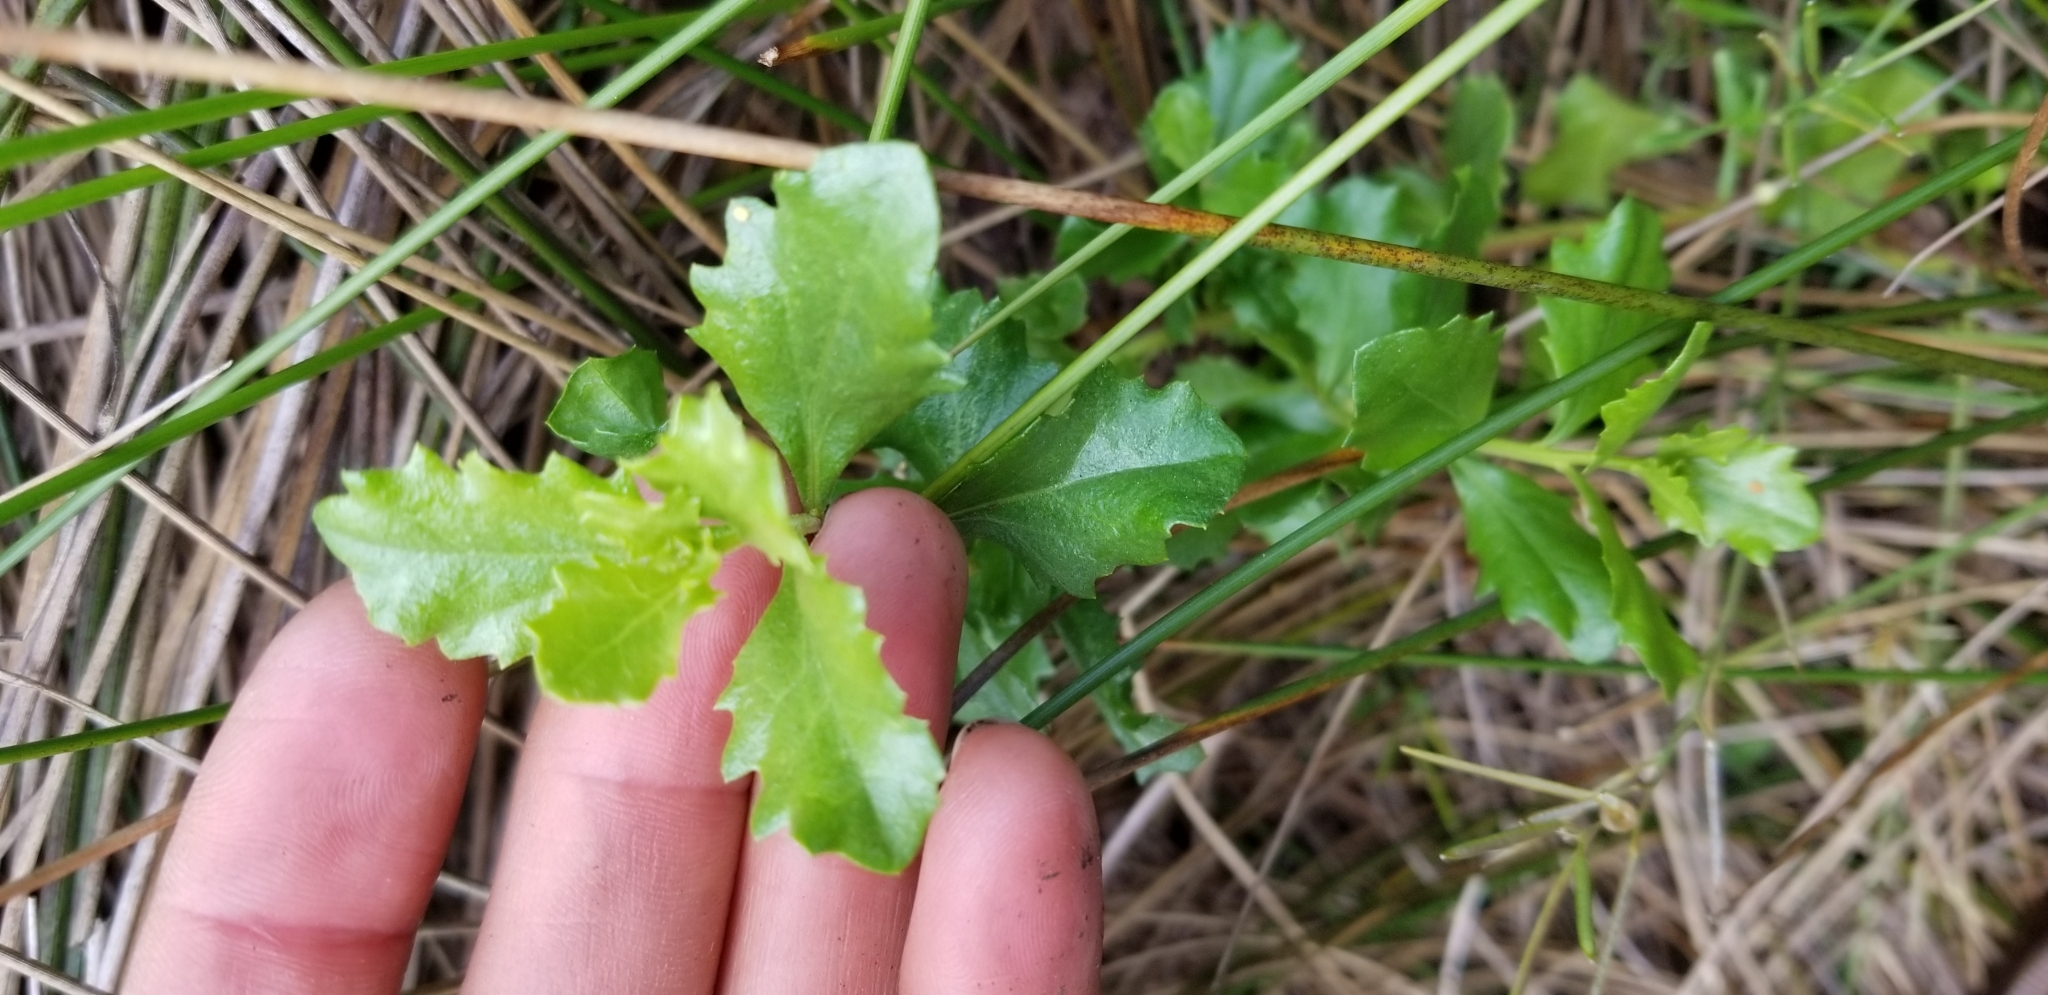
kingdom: Plantae
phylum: Tracheophyta
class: Magnoliopsida
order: Asterales
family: Asteraceae
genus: Baccharis
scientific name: Baccharis pilularis
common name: Coyotebrush
